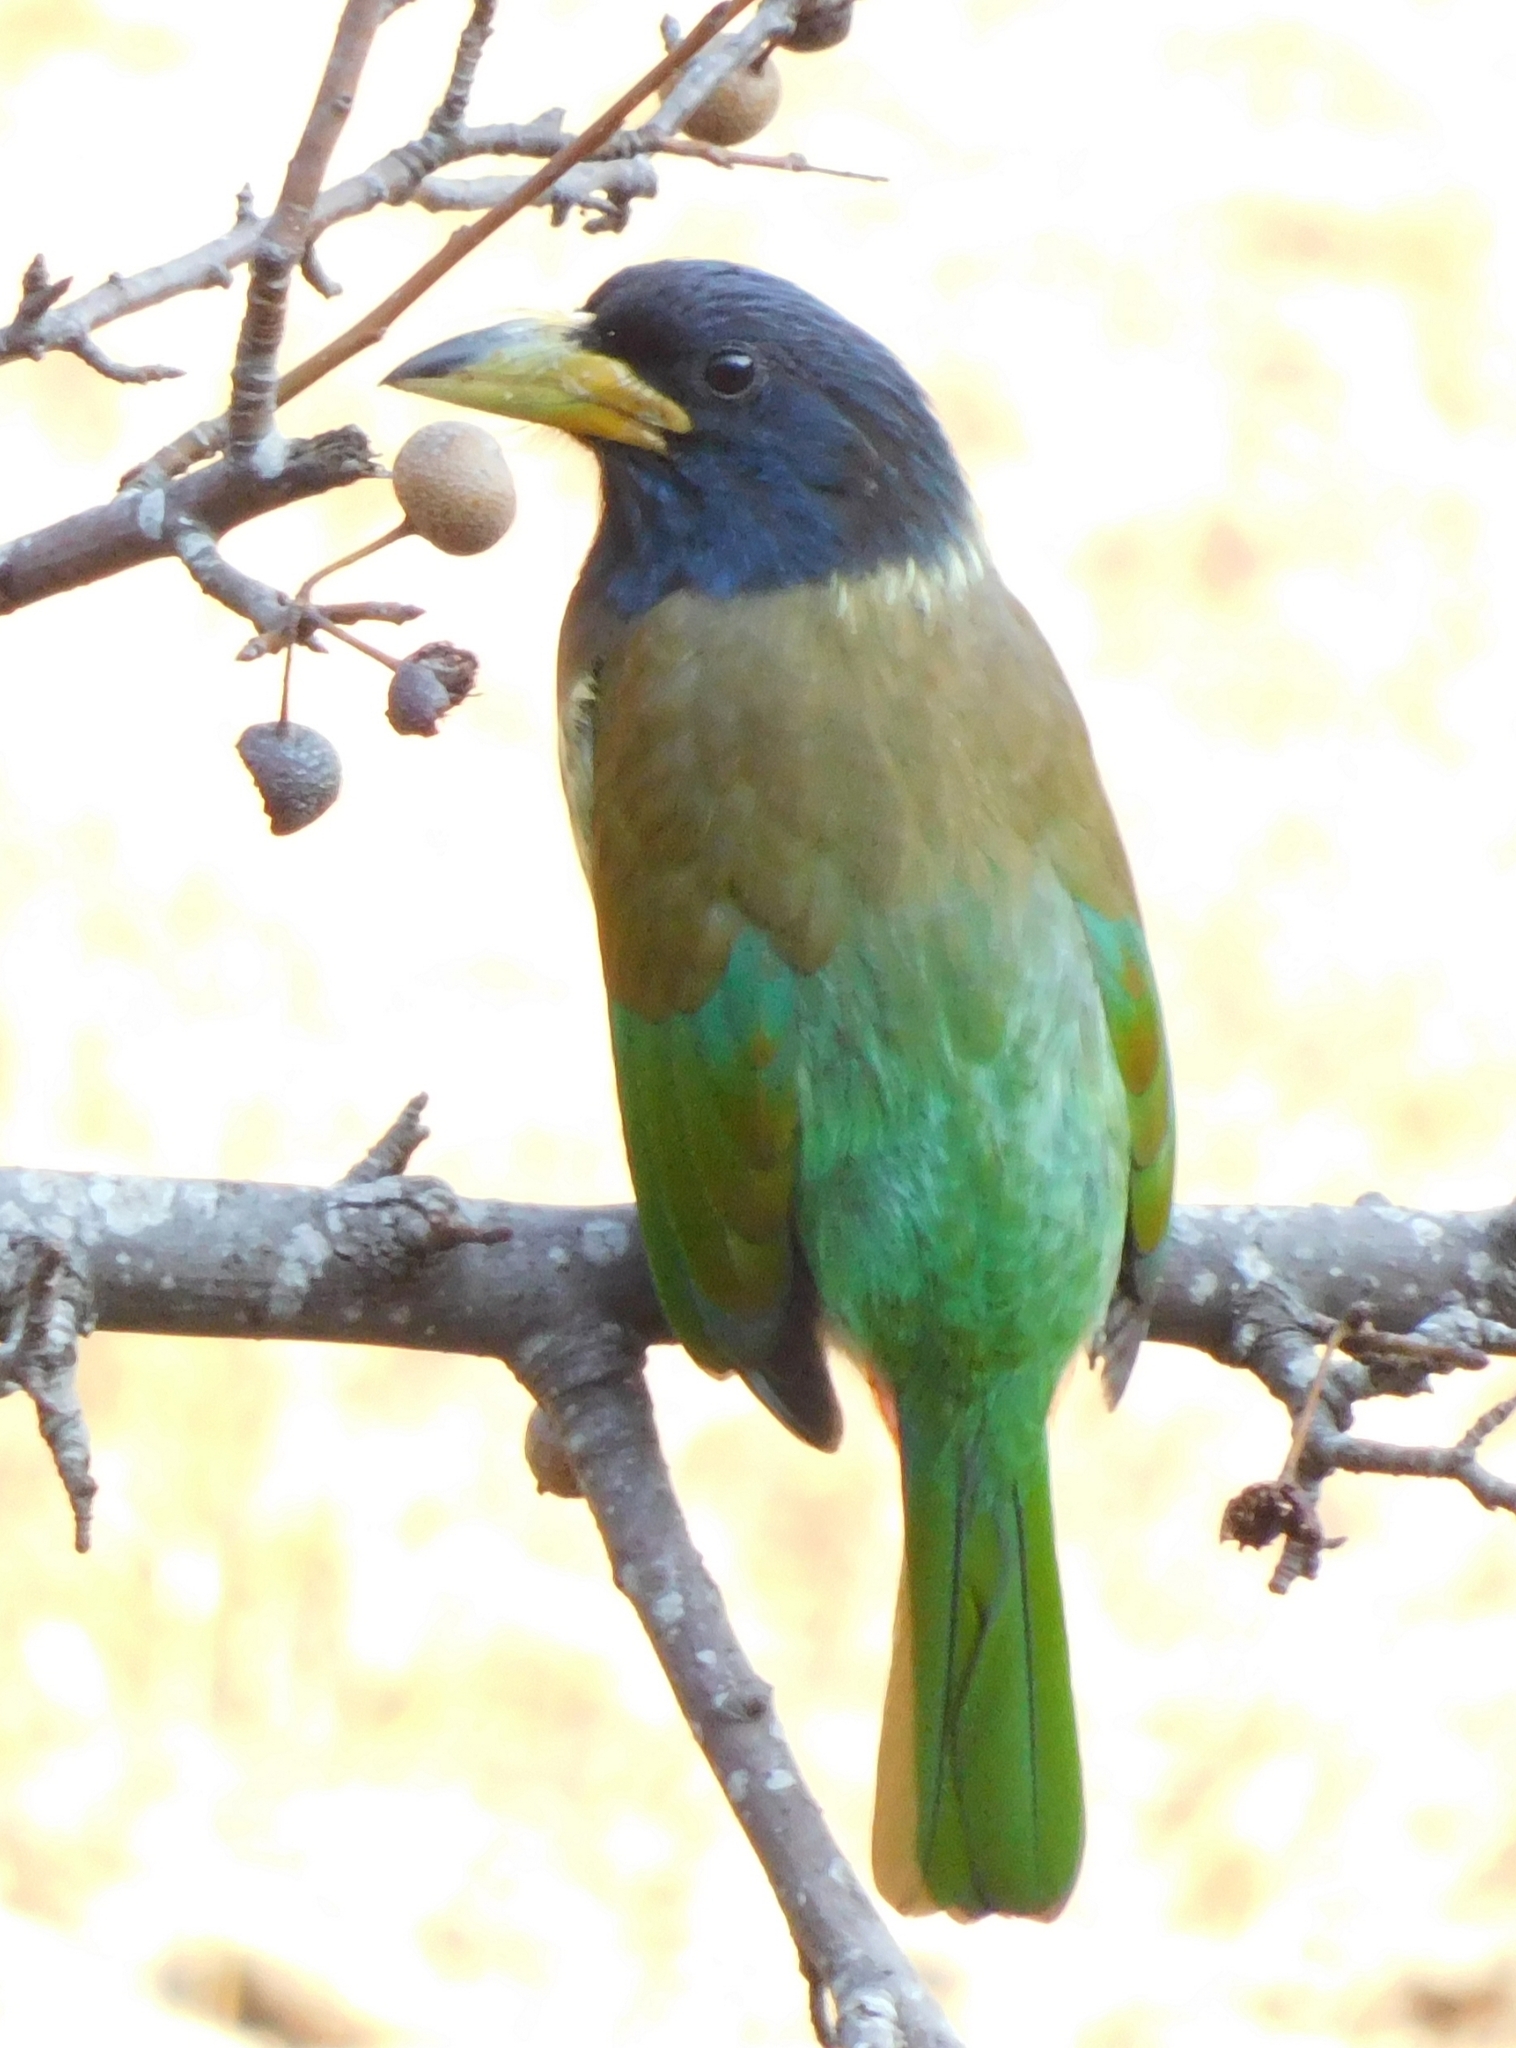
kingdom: Animalia
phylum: Chordata
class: Aves
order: Piciformes
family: Megalaimidae
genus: Psilopogon
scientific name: Psilopogon virens
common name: Great barbet
